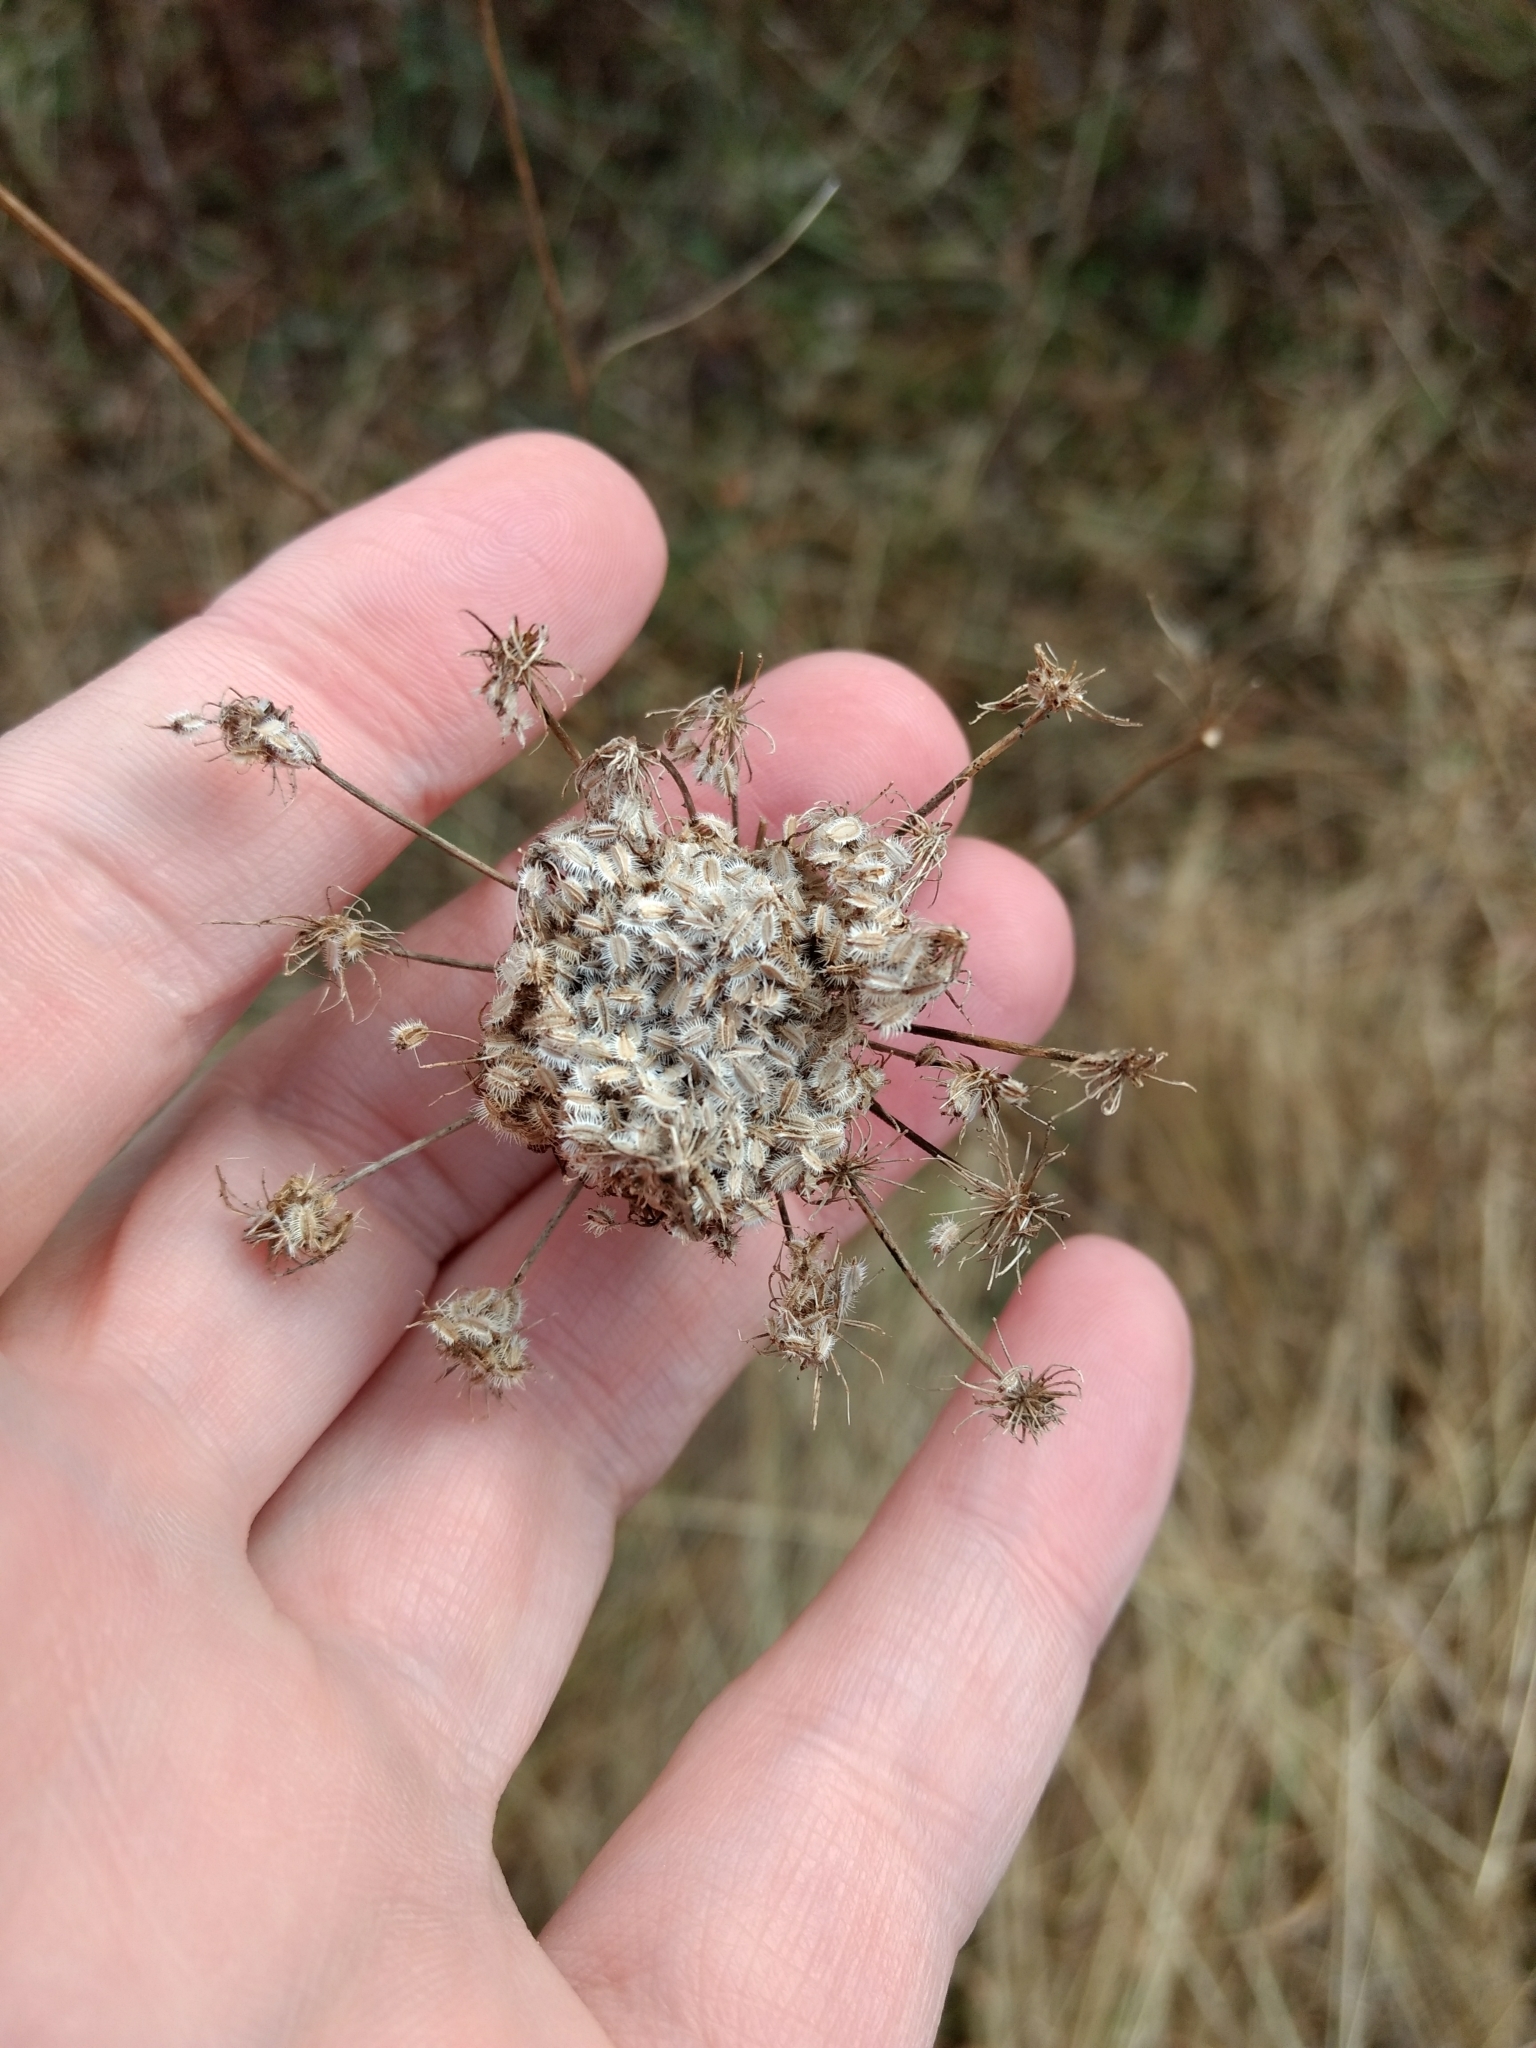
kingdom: Plantae
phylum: Tracheophyta
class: Magnoliopsida
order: Apiales
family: Apiaceae
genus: Daucus
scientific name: Daucus carota
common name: Wild carrot
